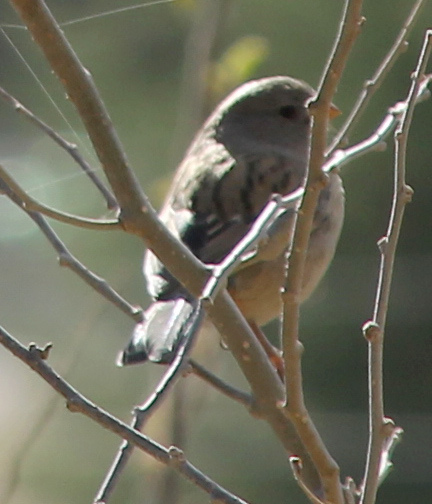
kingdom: Animalia
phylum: Chordata
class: Aves
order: Passeriformes
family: Thraupidae
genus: Catamenia
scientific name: Catamenia inornata
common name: Plain-colored seedeater
